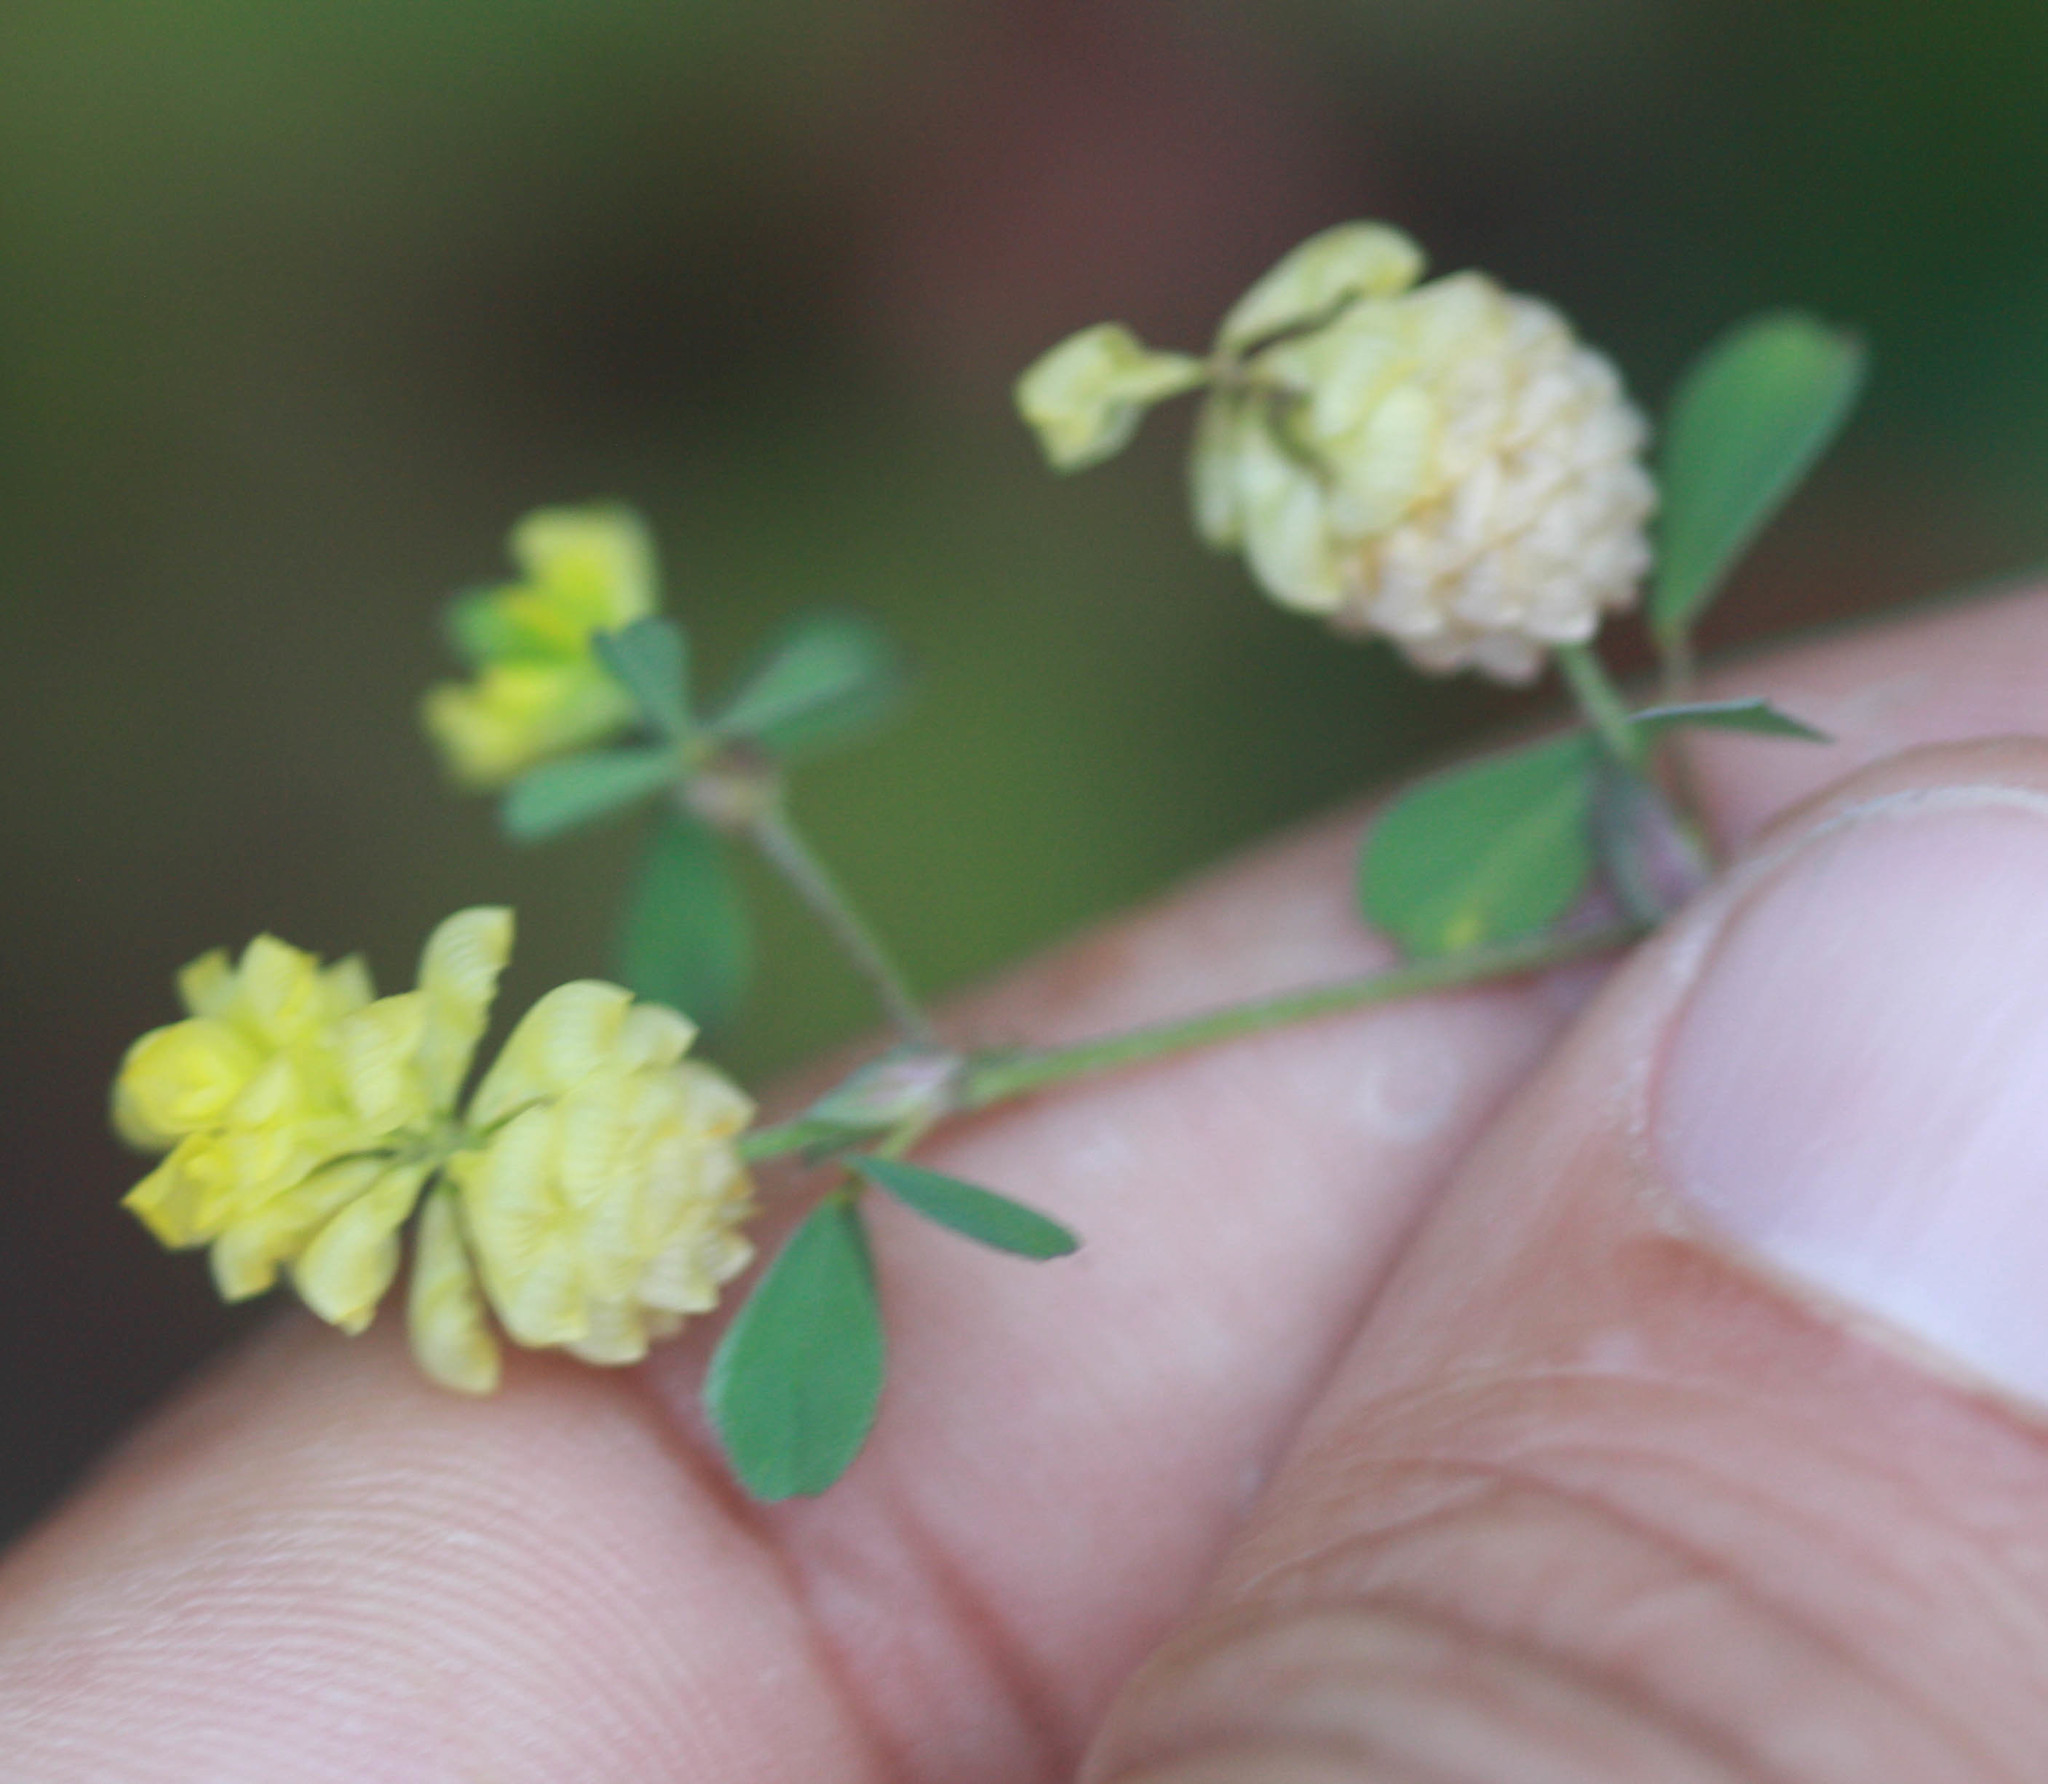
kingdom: Plantae
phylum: Tracheophyta
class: Magnoliopsida
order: Fabales
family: Fabaceae
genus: Trifolium
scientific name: Trifolium campestre
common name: Field clover
